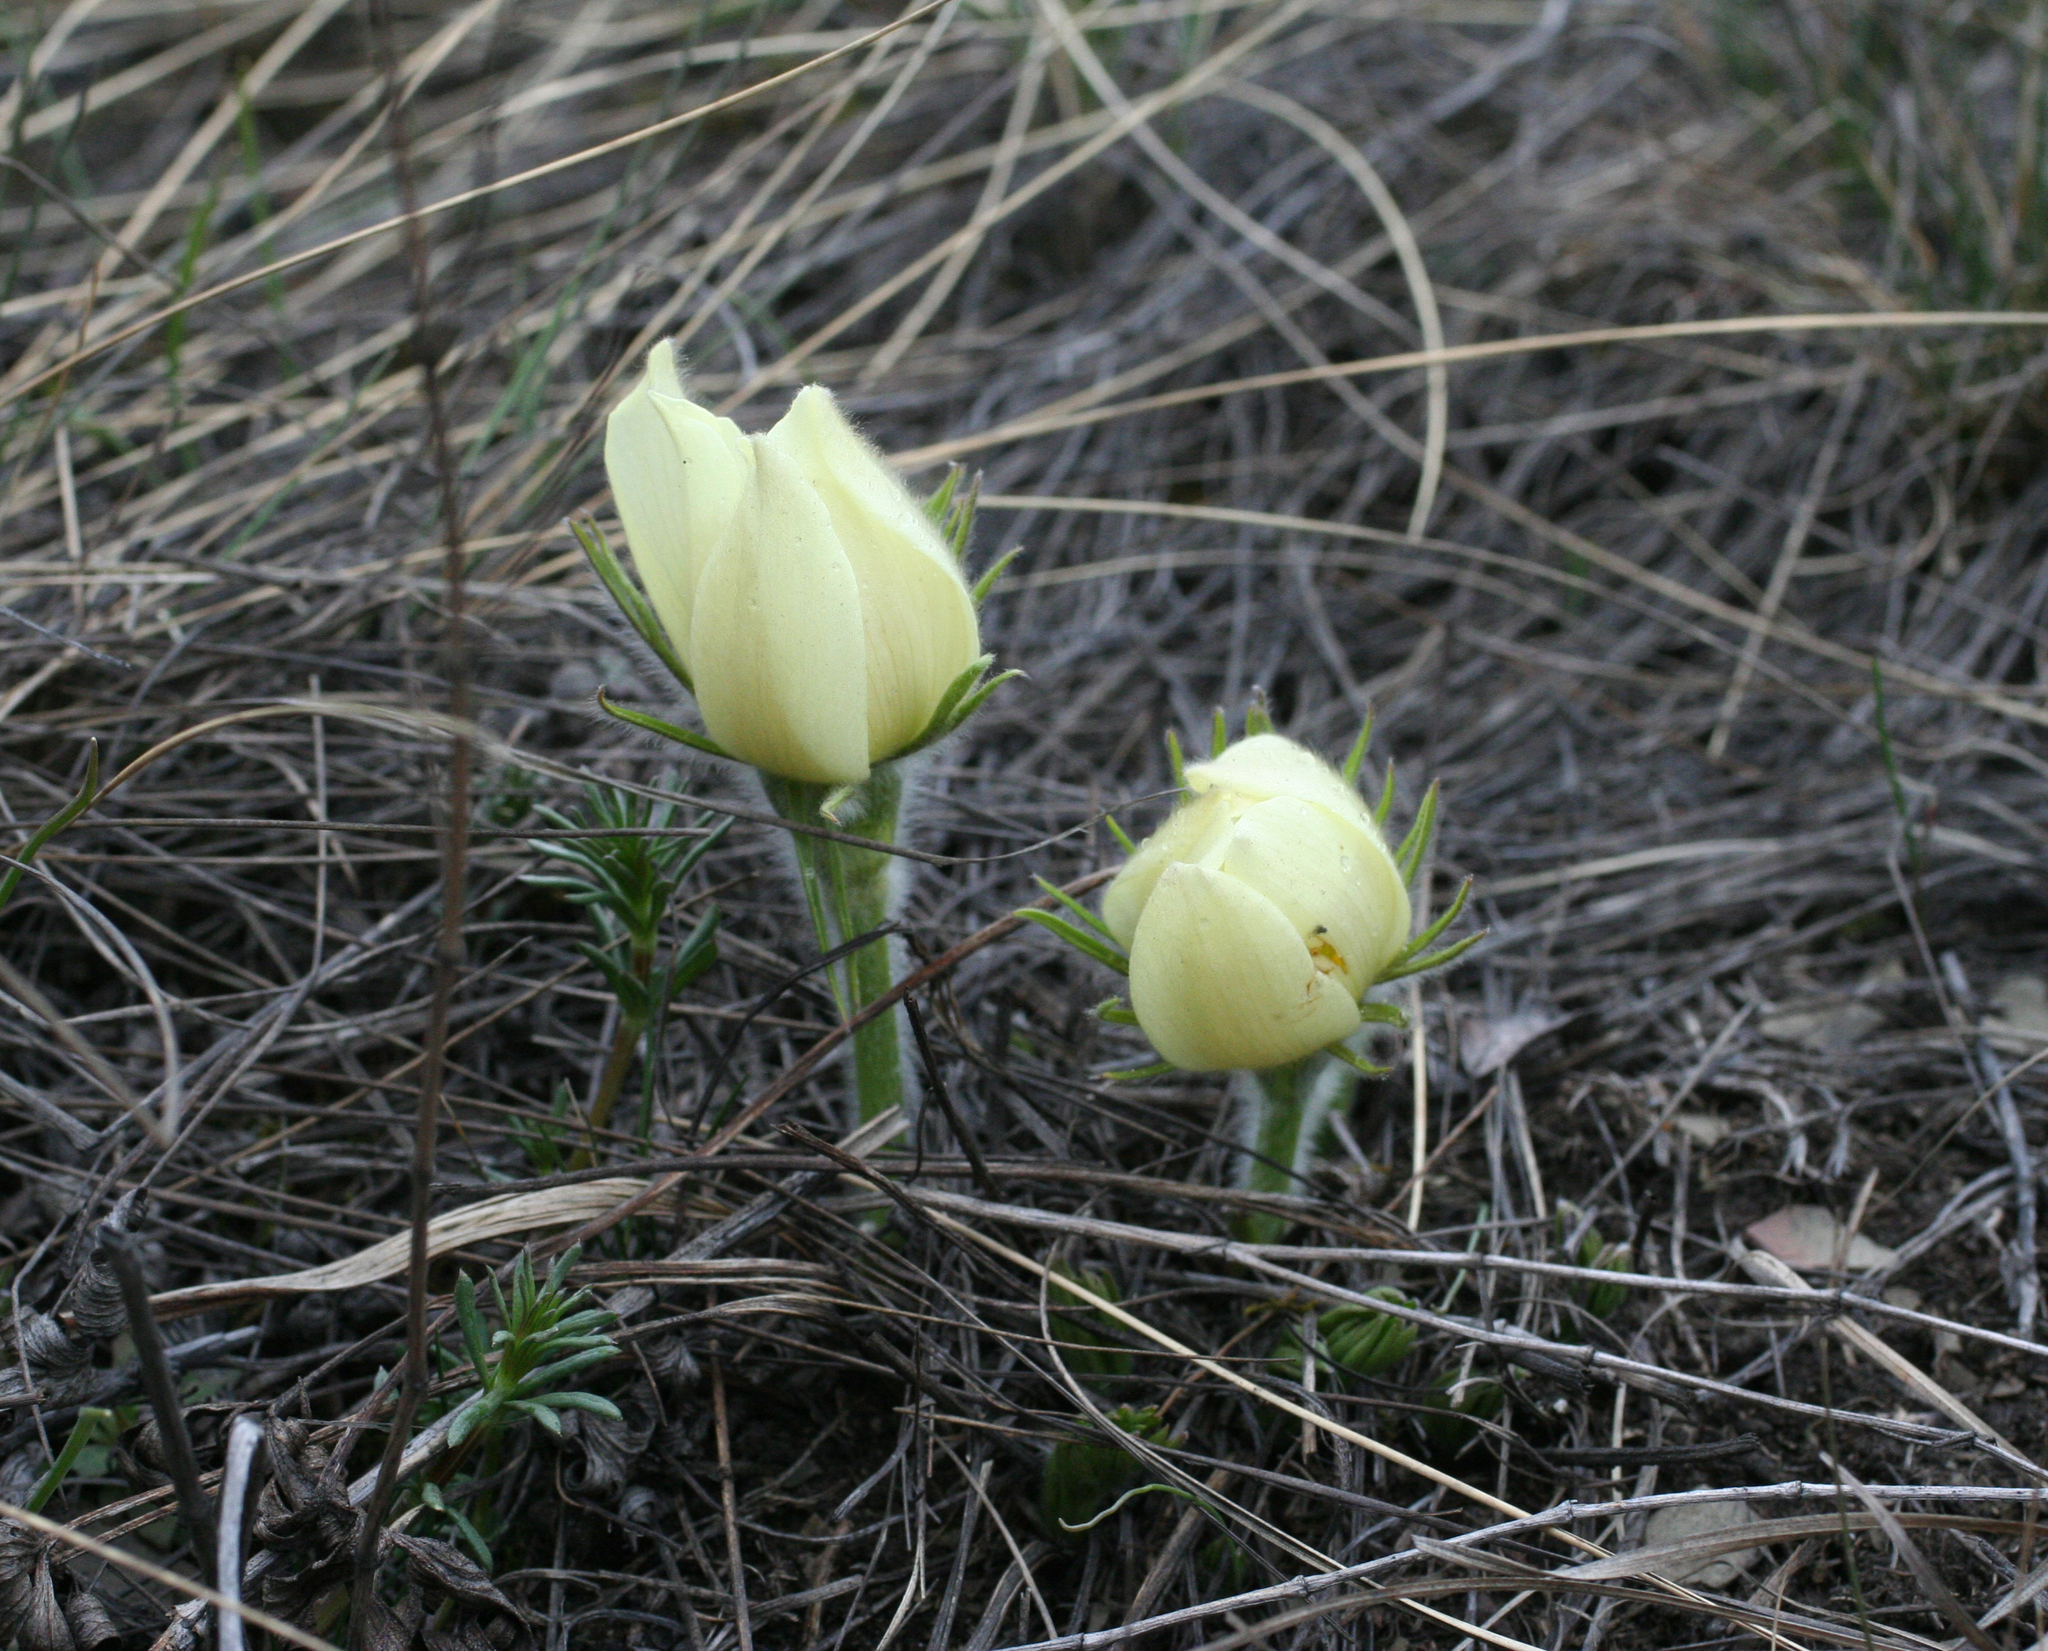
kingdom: Plantae
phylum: Tracheophyta
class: Magnoliopsida
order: Ranunculales
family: Ranunculaceae
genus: Pulsatilla
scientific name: Pulsatilla patens
